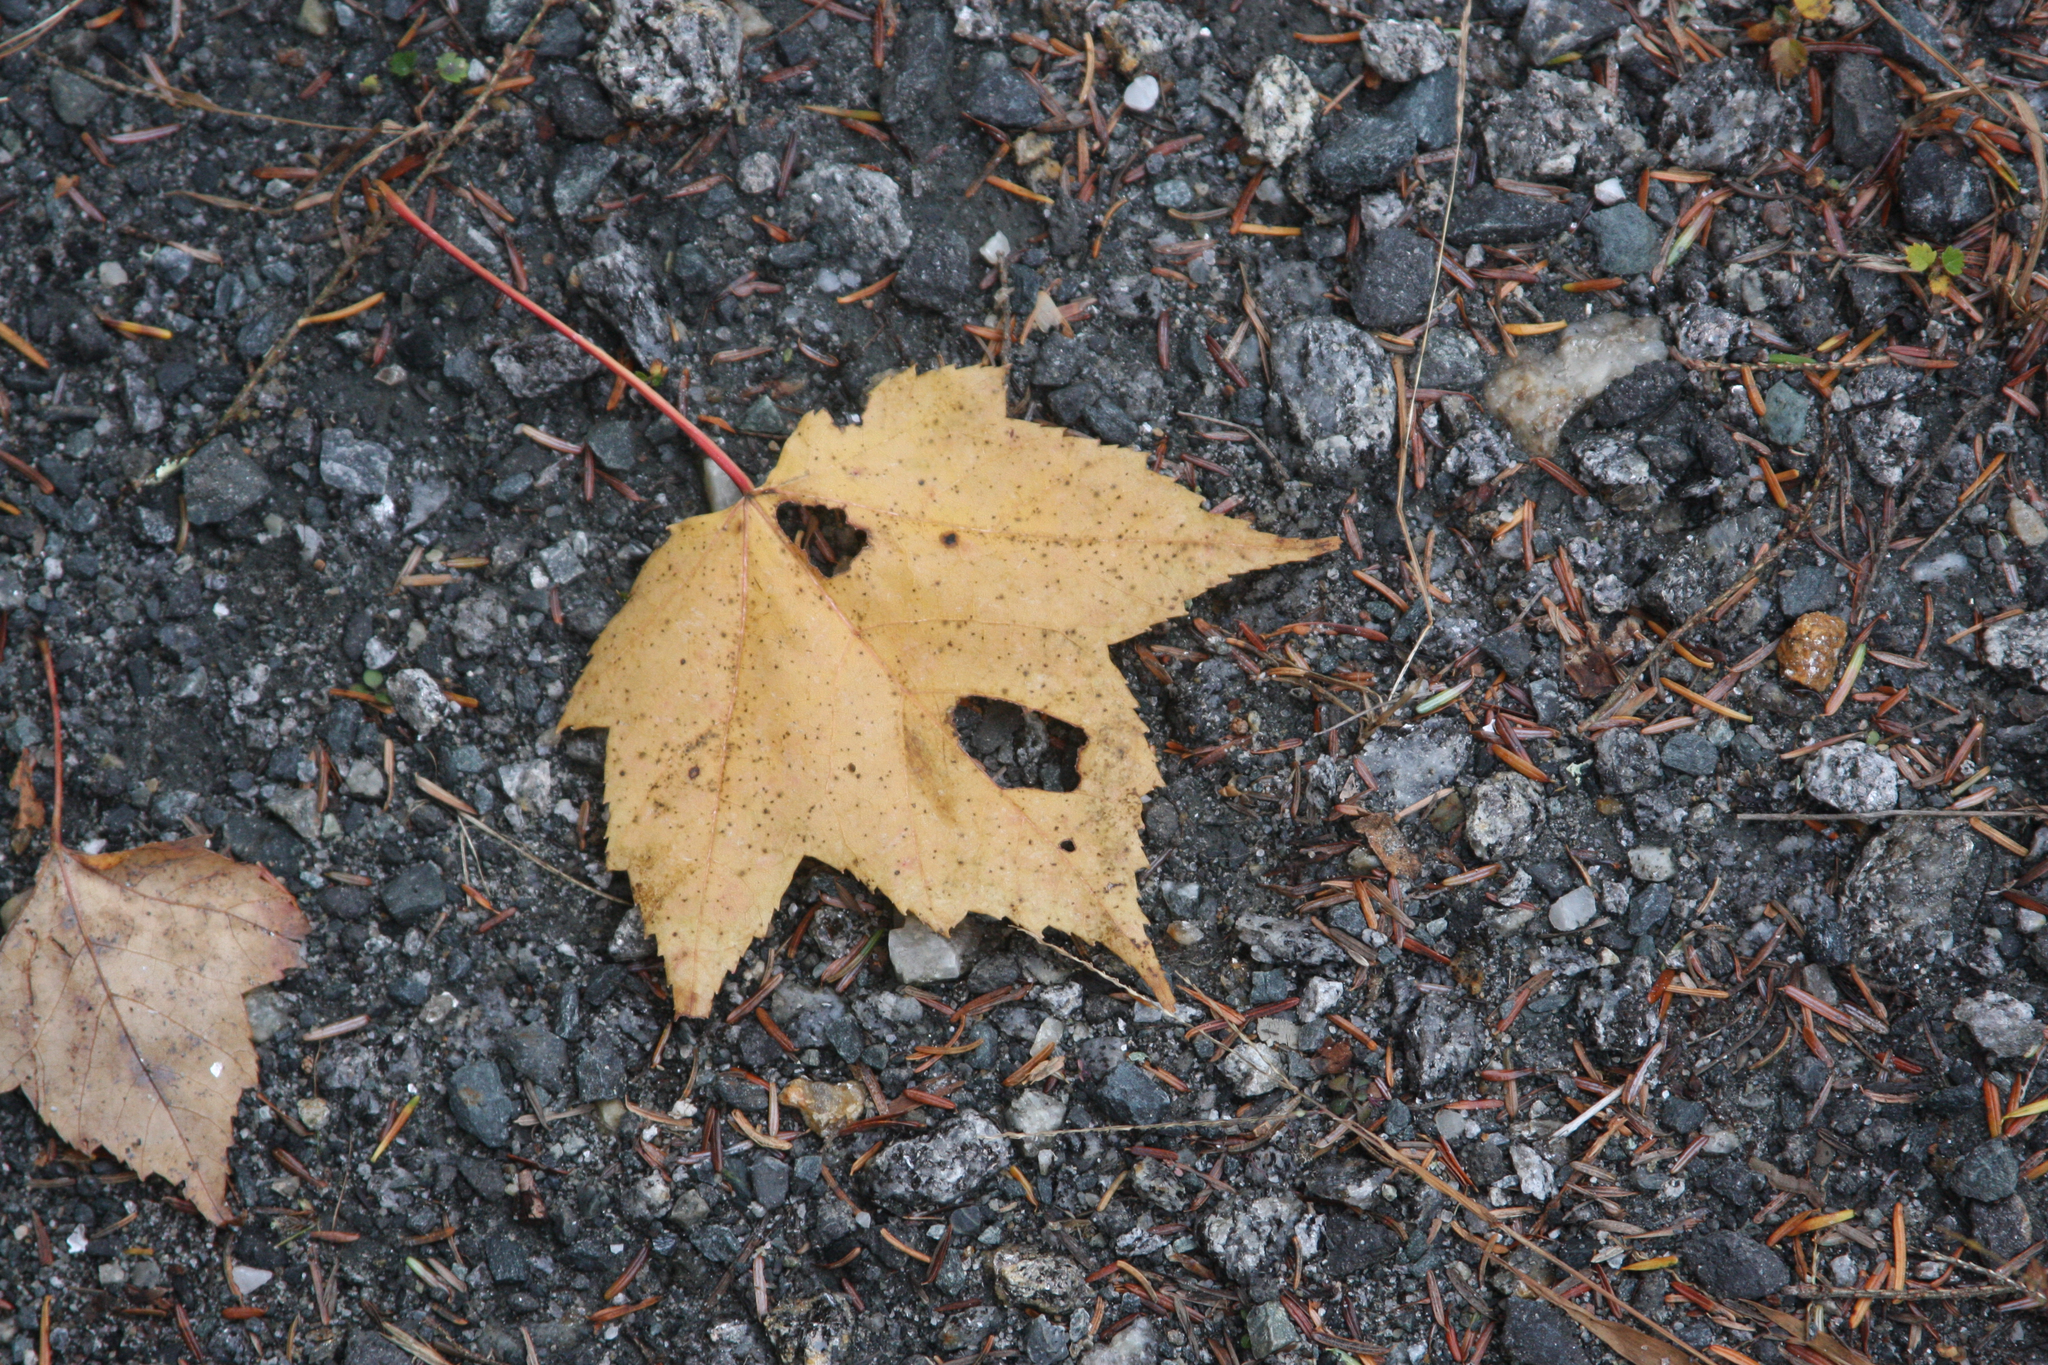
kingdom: Plantae
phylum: Tracheophyta
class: Magnoliopsida
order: Sapindales
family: Sapindaceae
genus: Acer
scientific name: Acer rubrum
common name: Red maple
